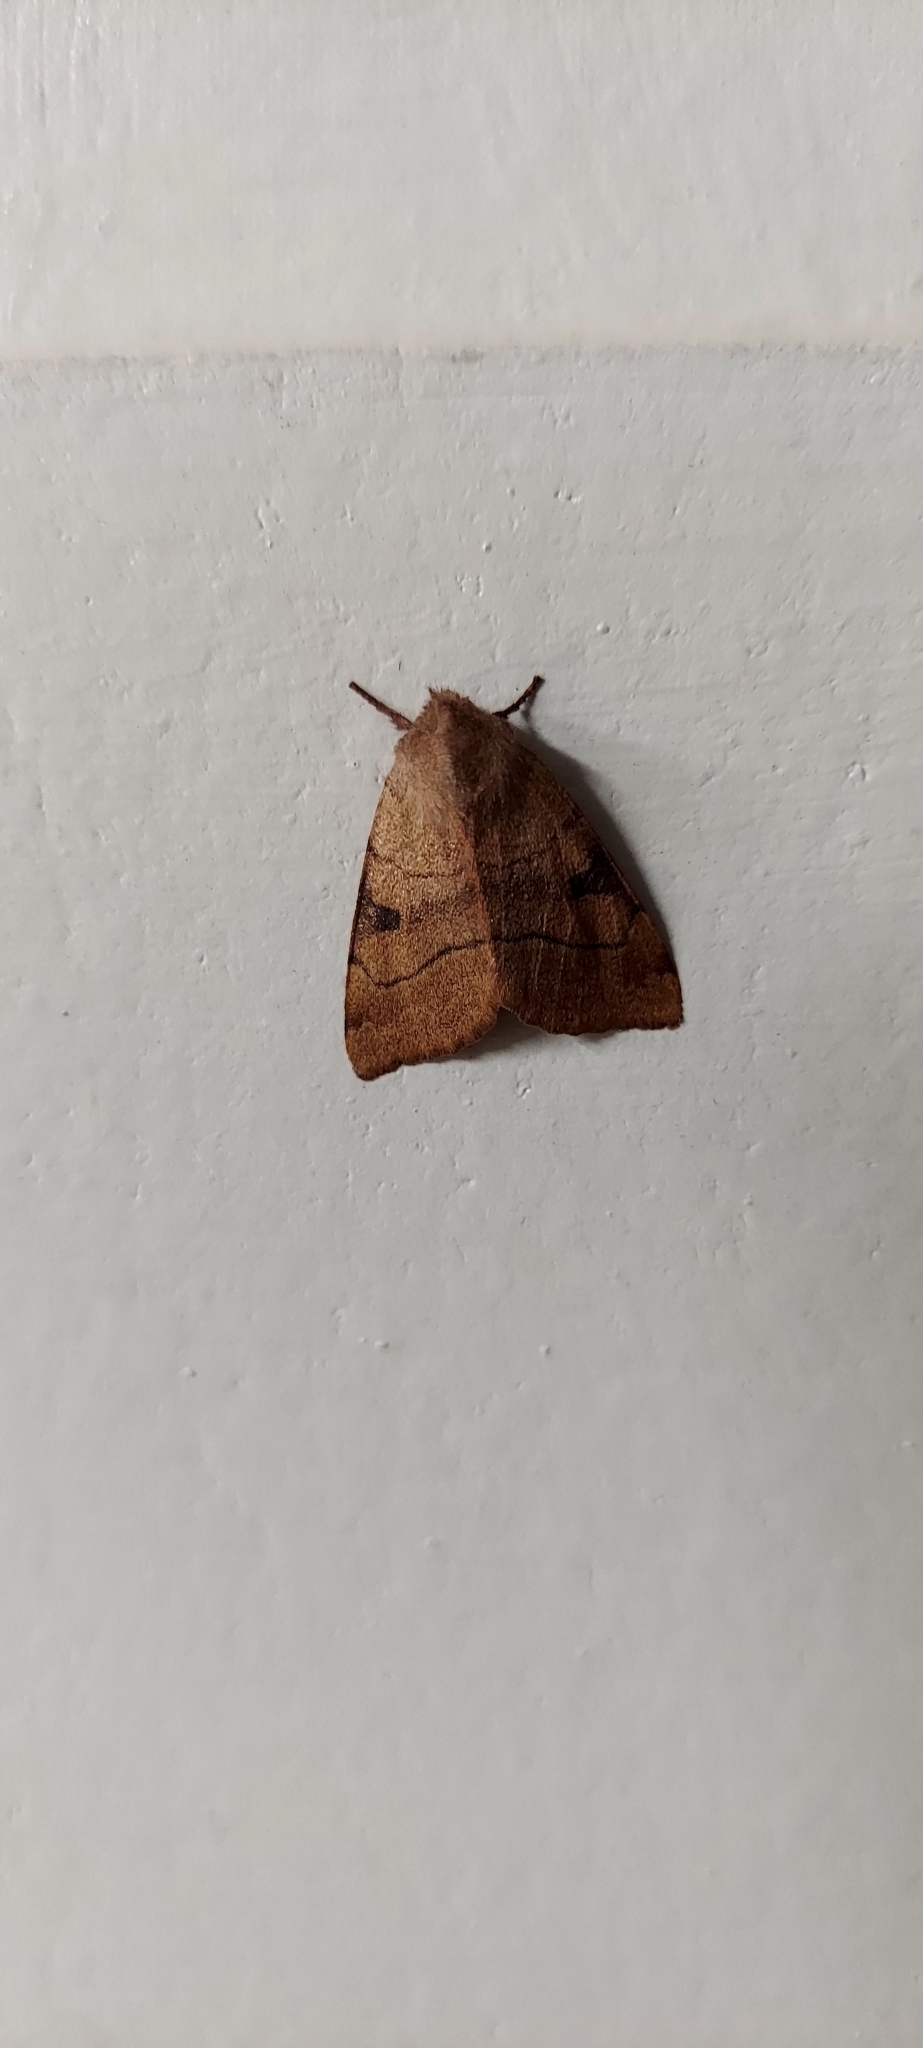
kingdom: Animalia
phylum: Arthropoda
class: Insecta
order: Lepidoptera
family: Noctuidae
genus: Choephora
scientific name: Choephora fungorum
